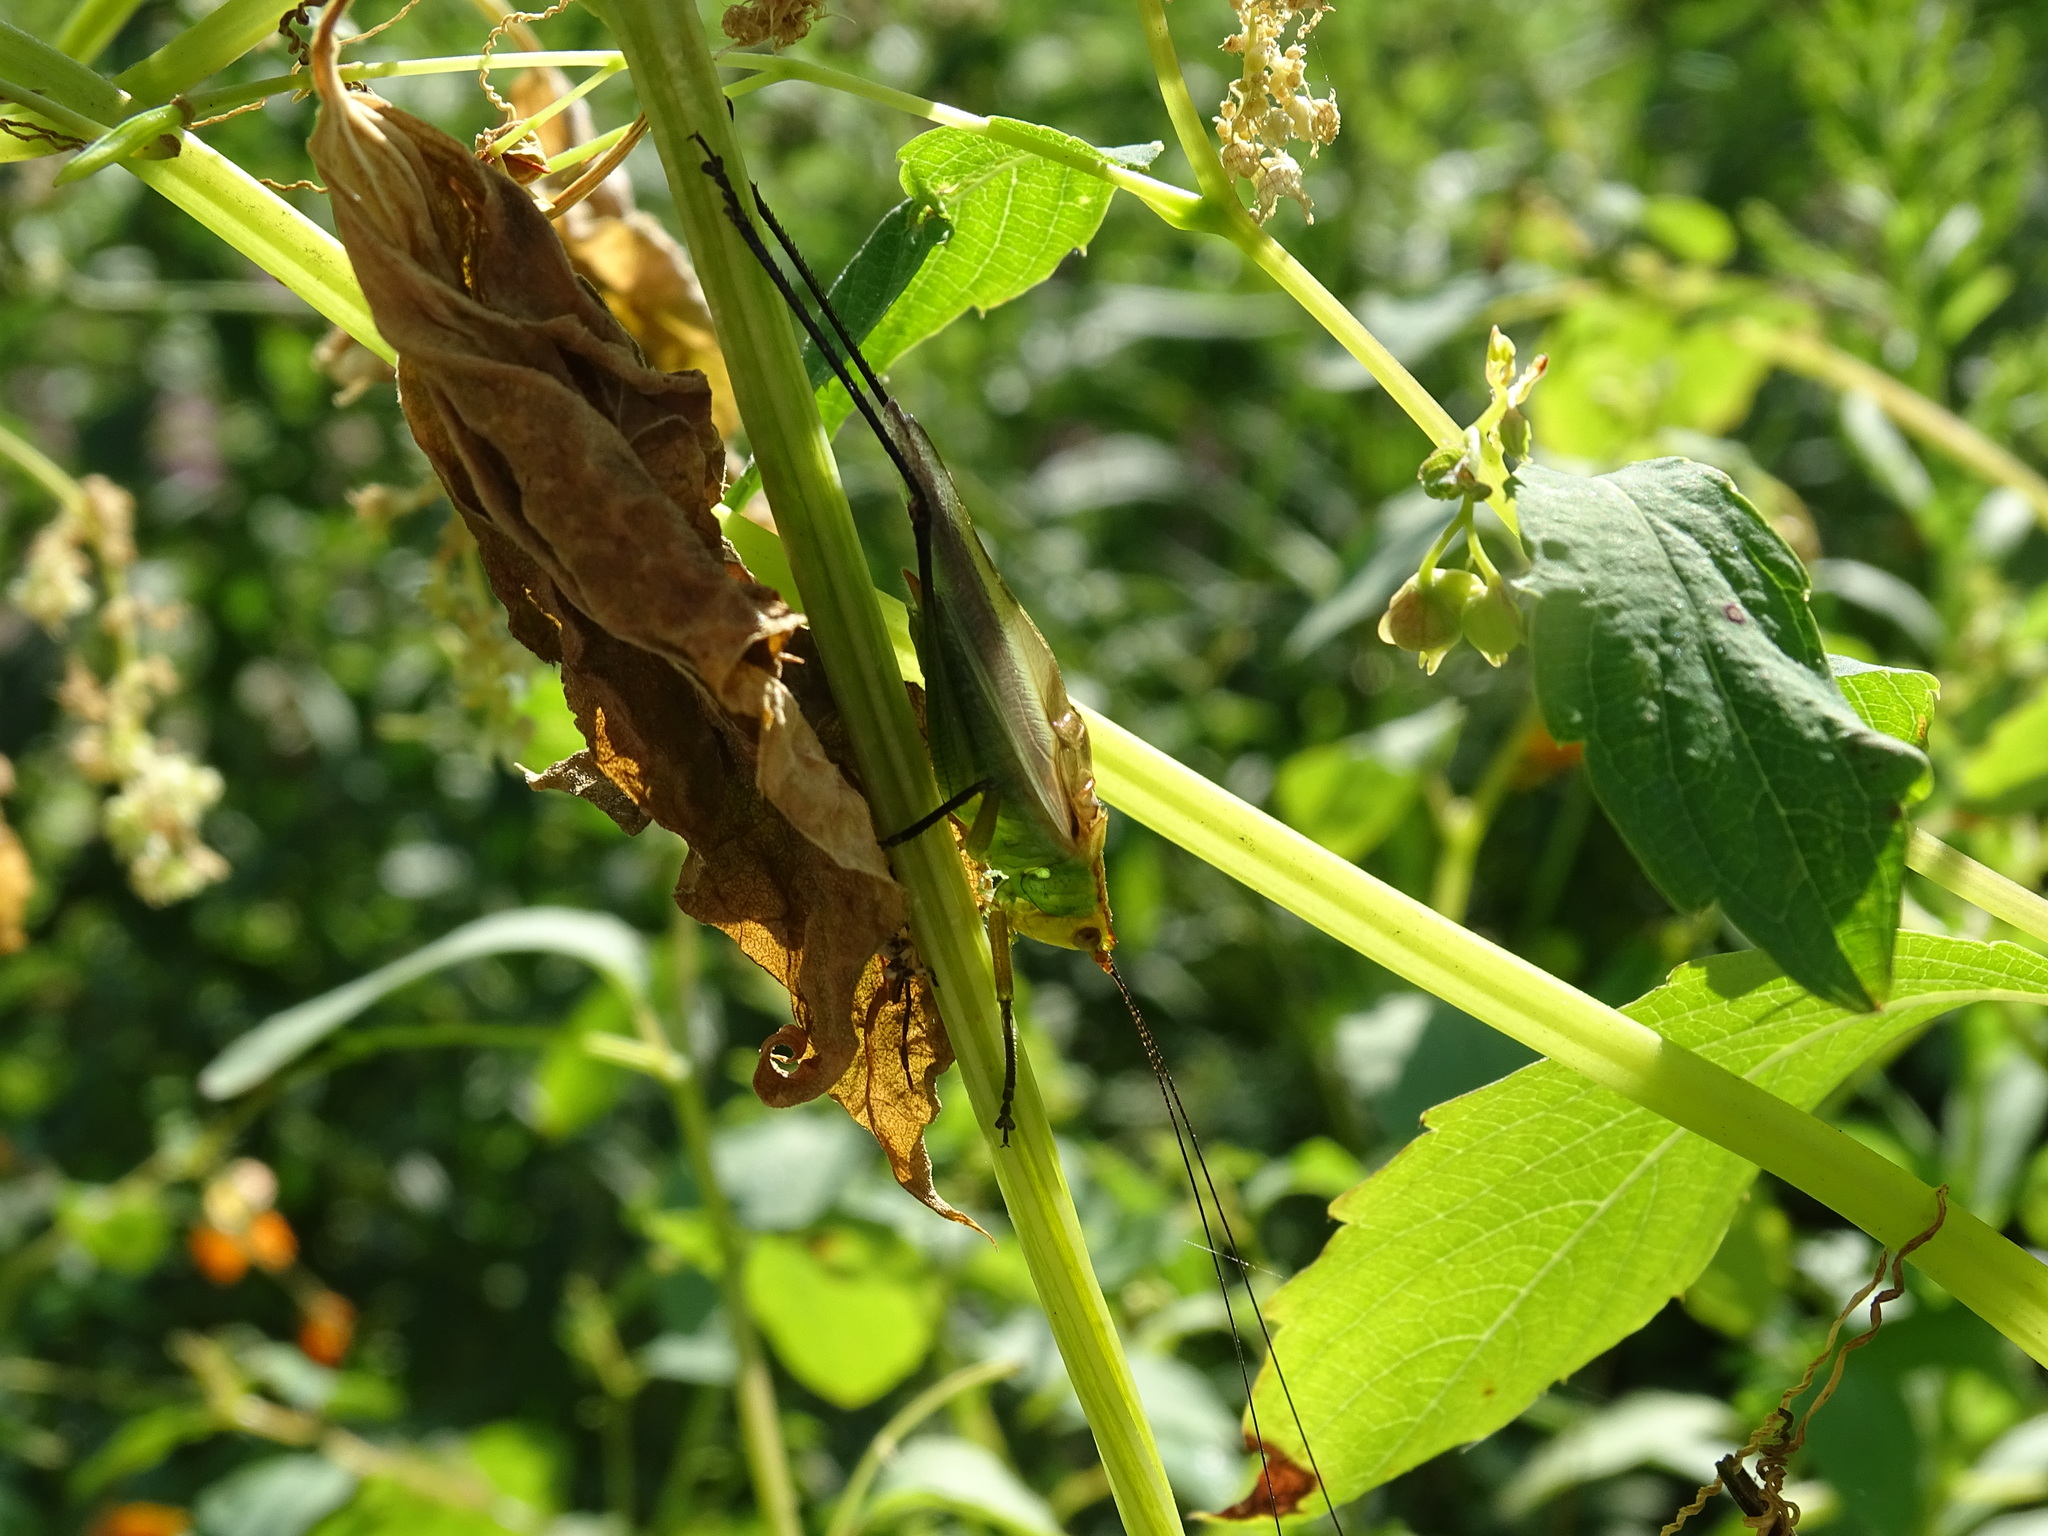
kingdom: Animalia
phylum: Arthropoda
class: Insecta
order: Orthoptera
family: Tettigoniidae
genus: Orchelimum
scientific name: Orchelimum nigripes
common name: Black-legged meadow katydid
